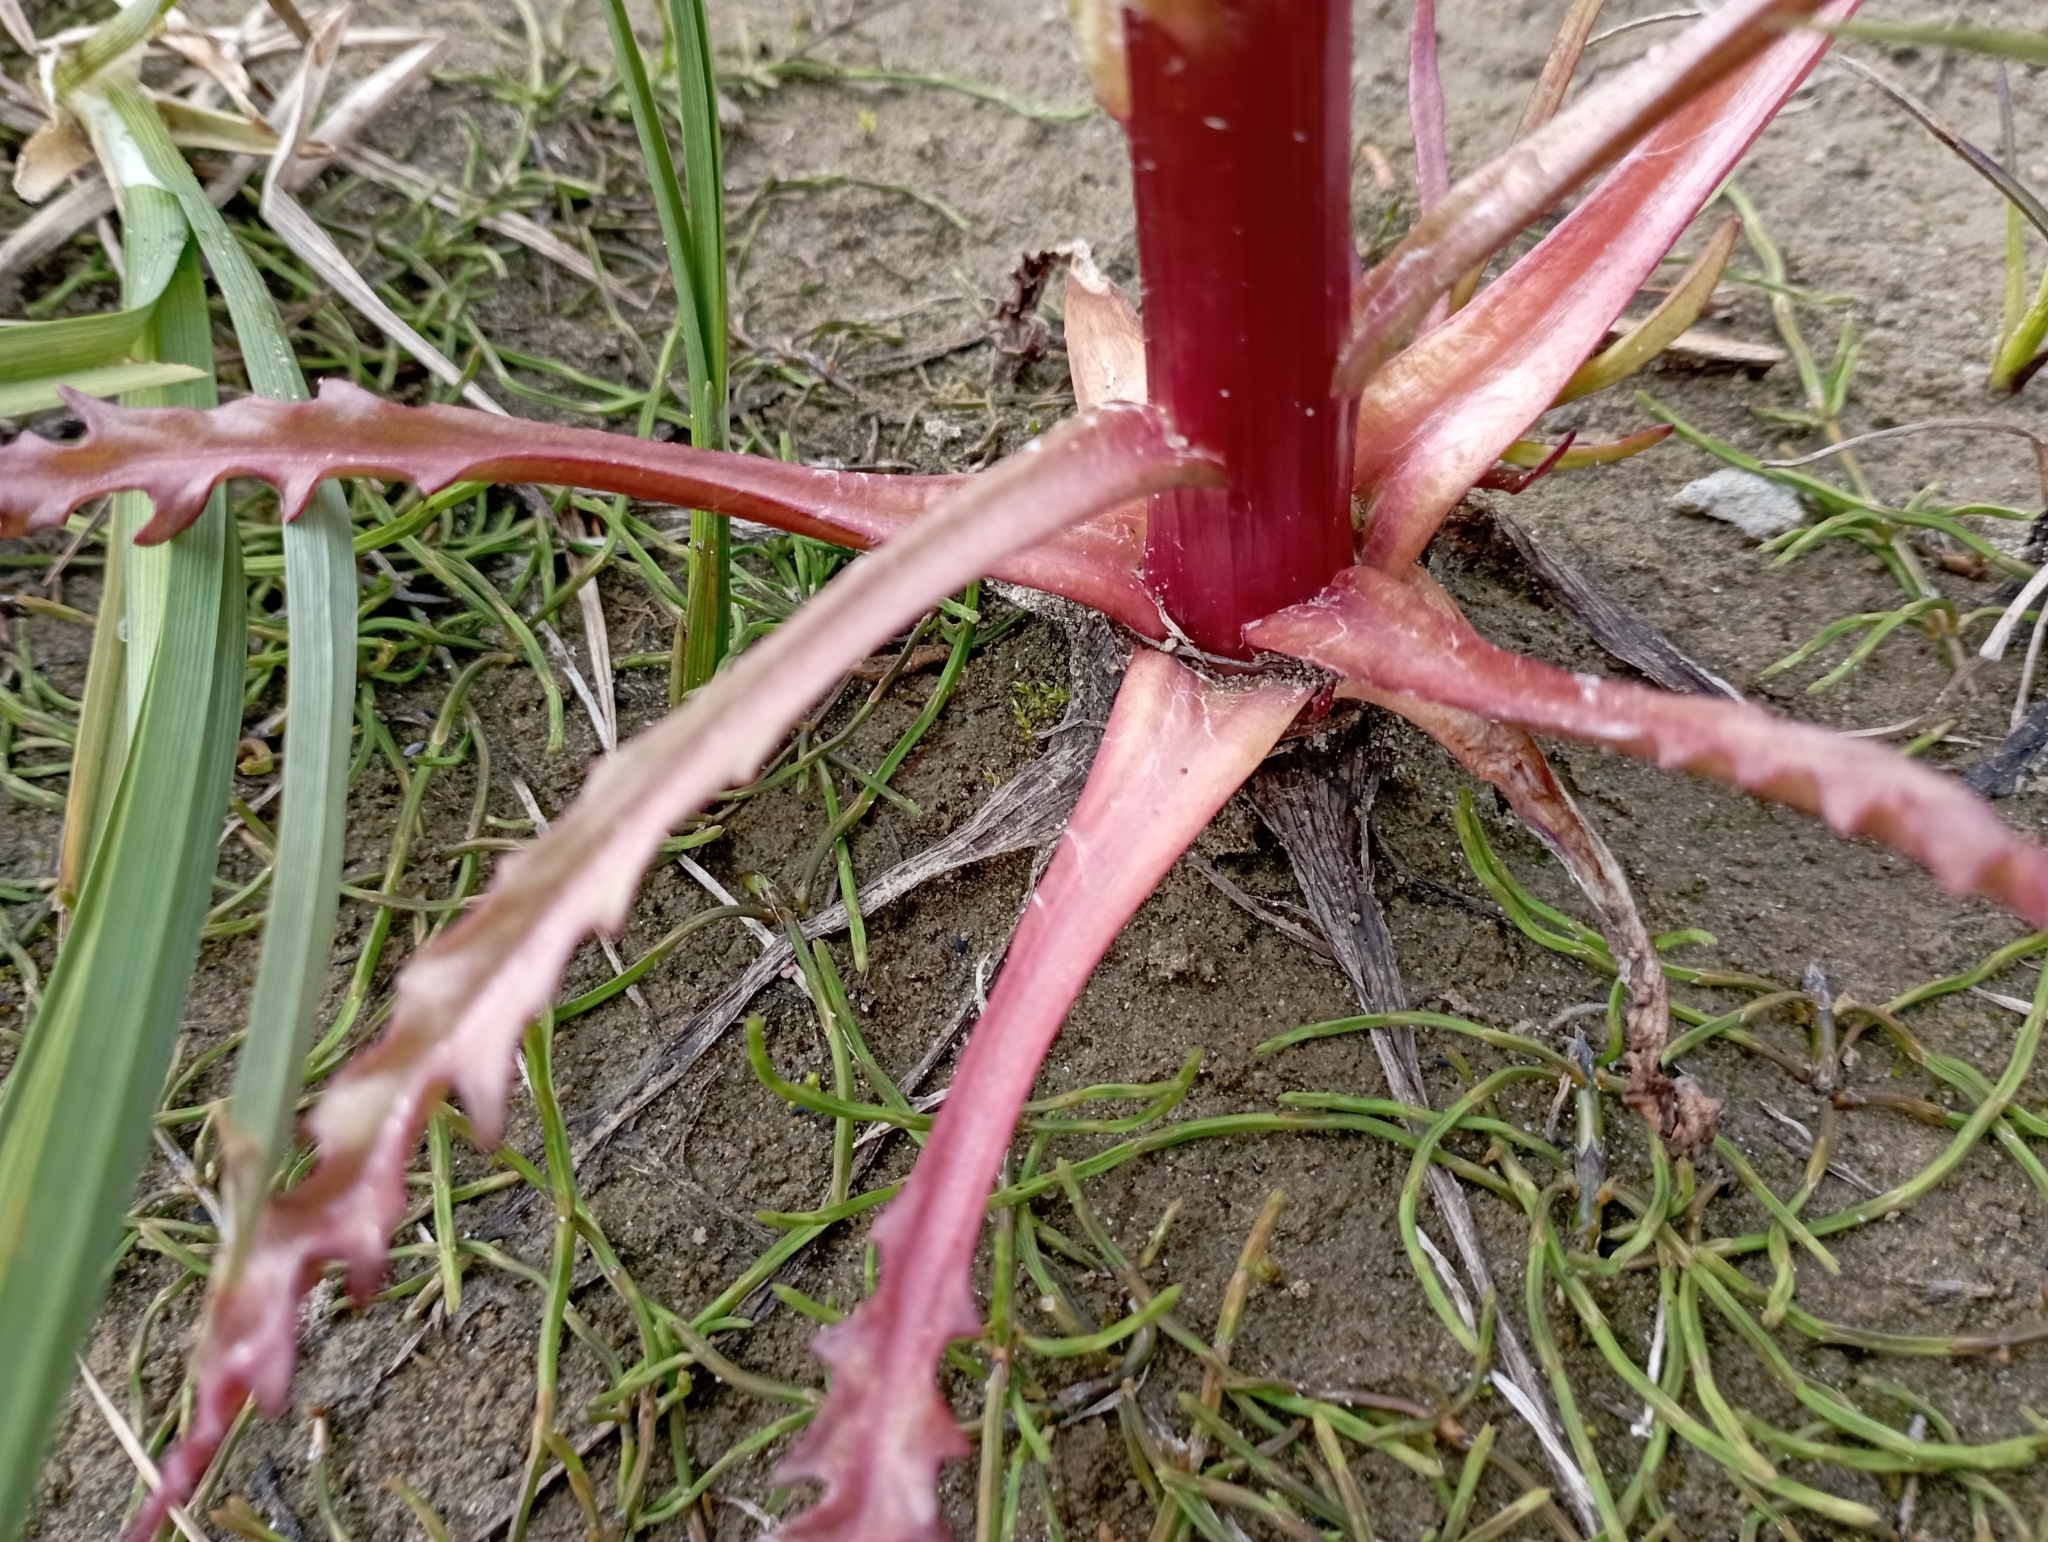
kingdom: Plantae
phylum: Tracheophyta
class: Magnoliopsida
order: Asterales
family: Asteraceae
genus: Tephroseris
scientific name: Tephroseris palustris
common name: Marsh fleawort
